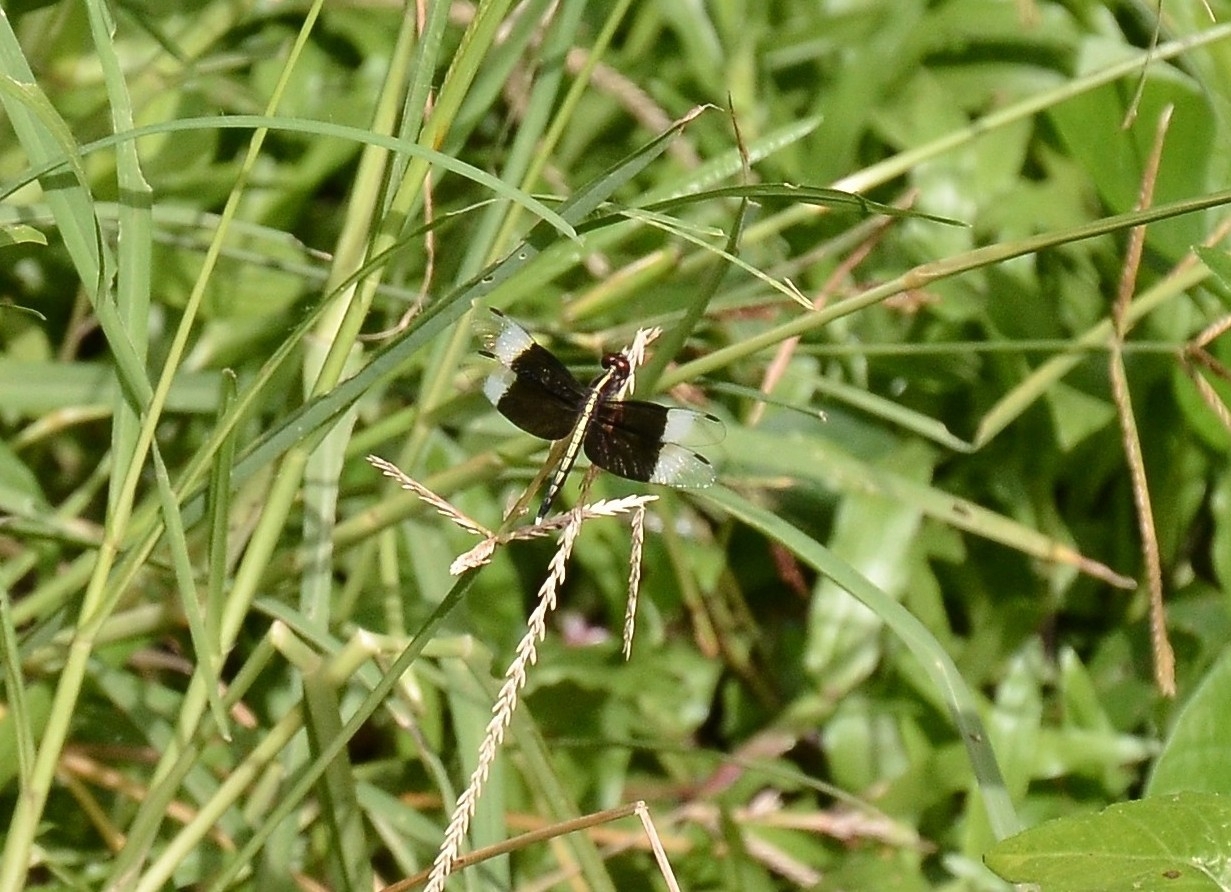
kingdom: Animalia
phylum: Arthropoda
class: Insecta
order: Odonata
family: Libellulidae
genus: Neurothemis
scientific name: Neurothemis tullia
